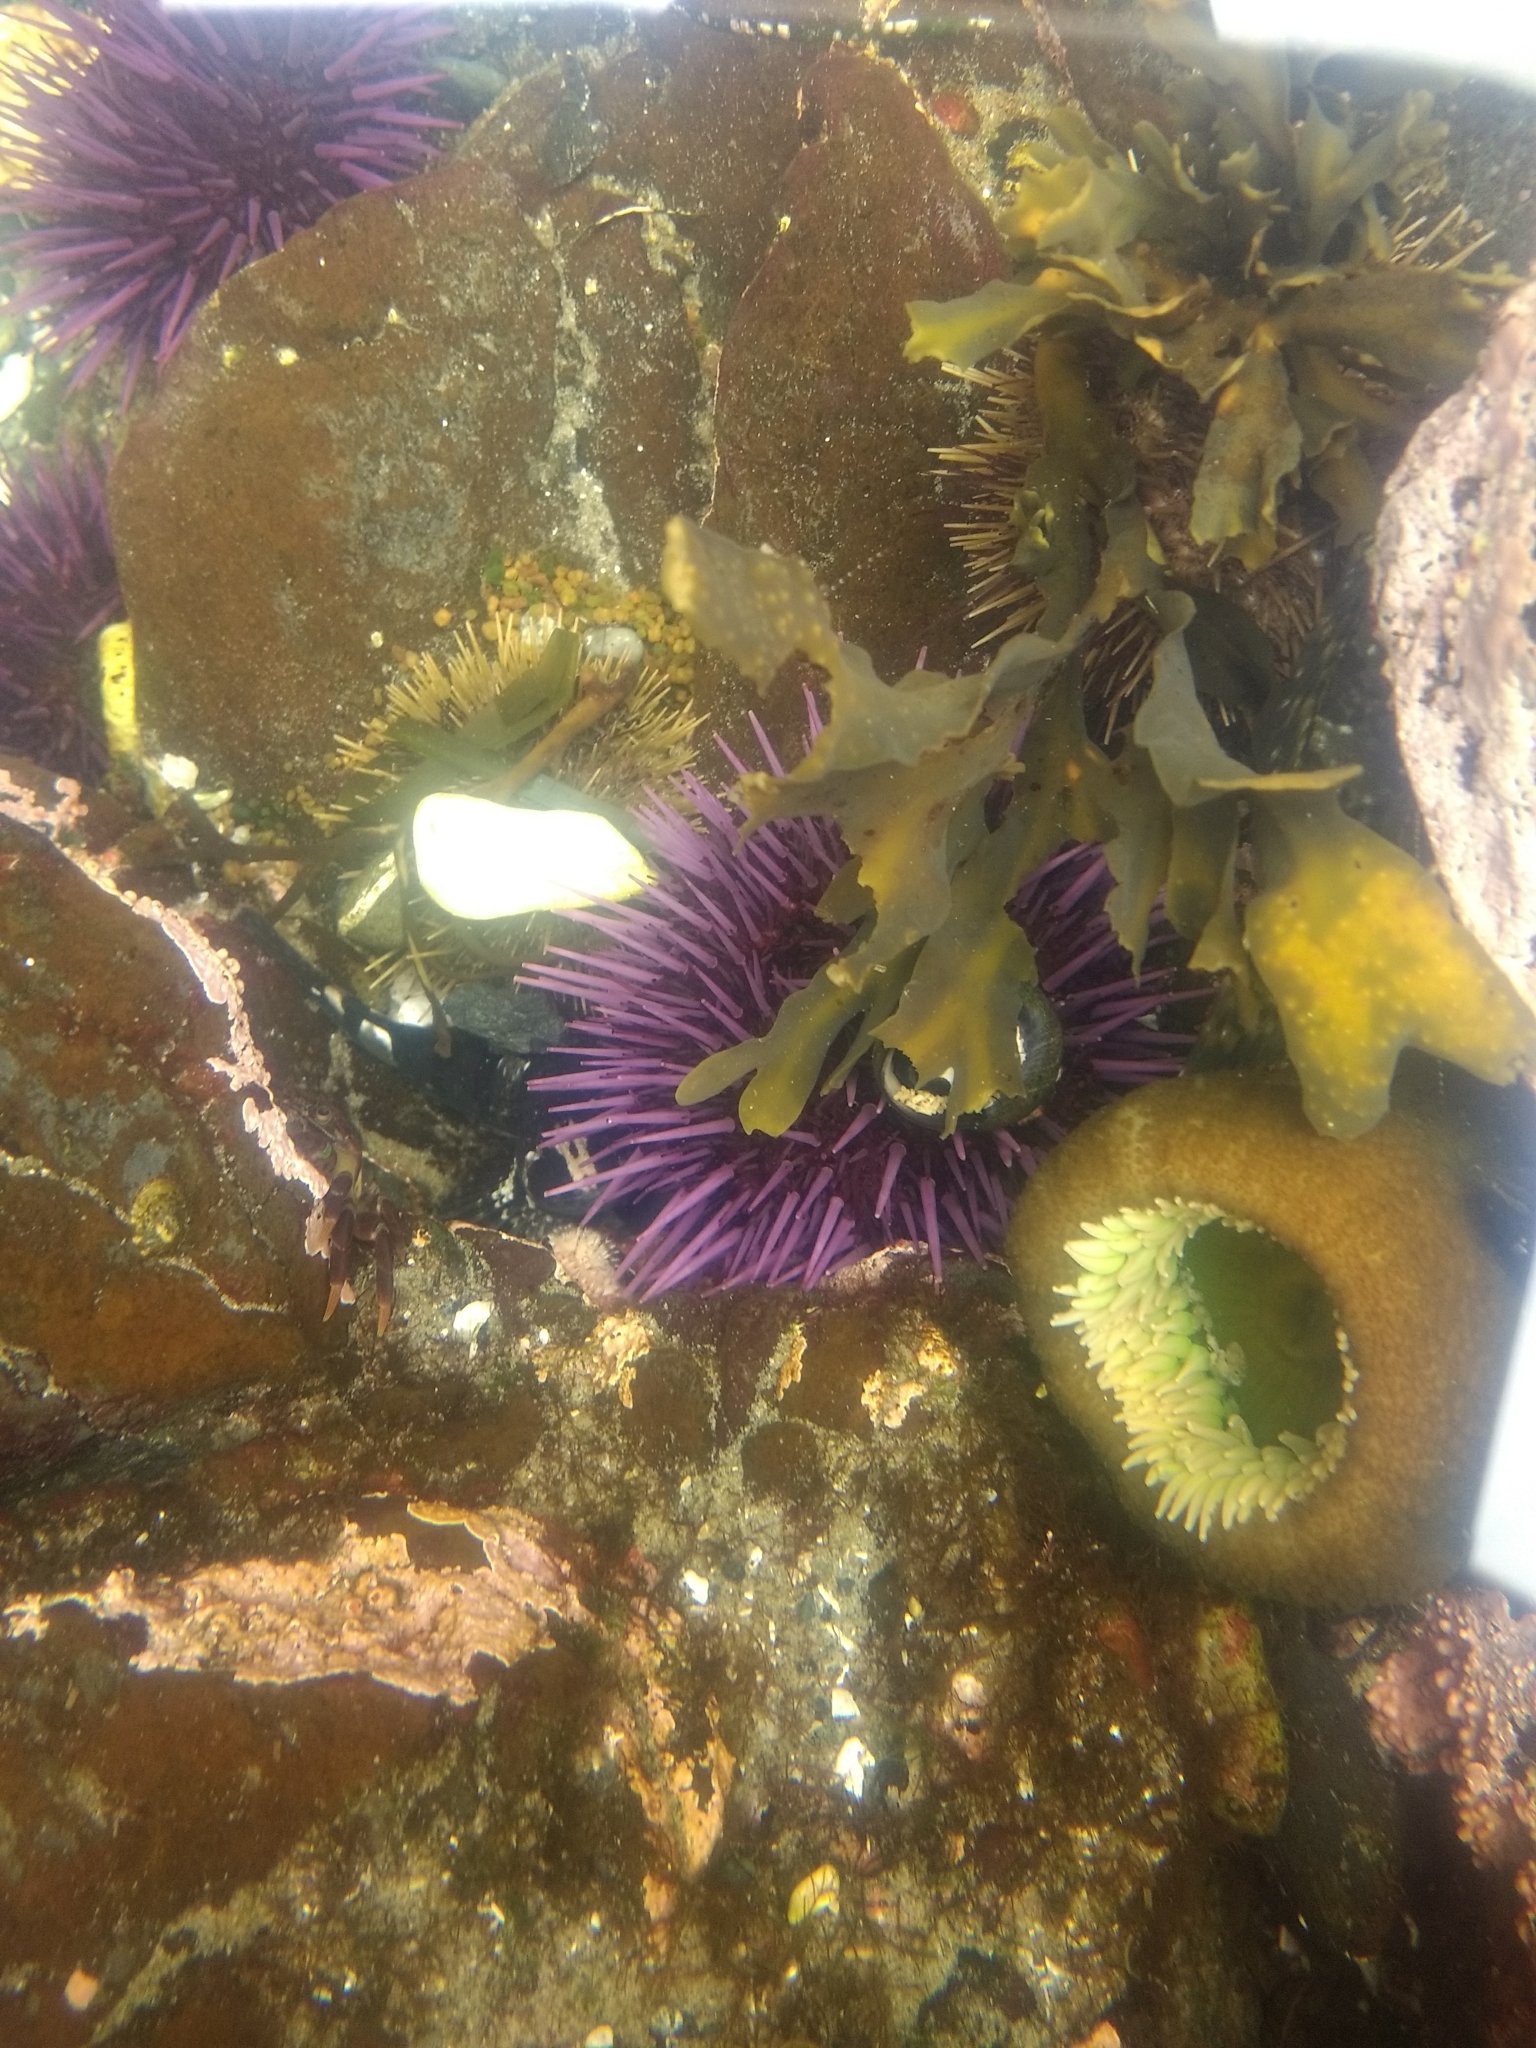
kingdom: Animalia
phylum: Echinodermata
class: Echinoidea
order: Camarodonta
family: Strongylocentrotidae
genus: Strongylocentrotus
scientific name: Strongylocentrotus purpuratus
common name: Purple sea urchin
